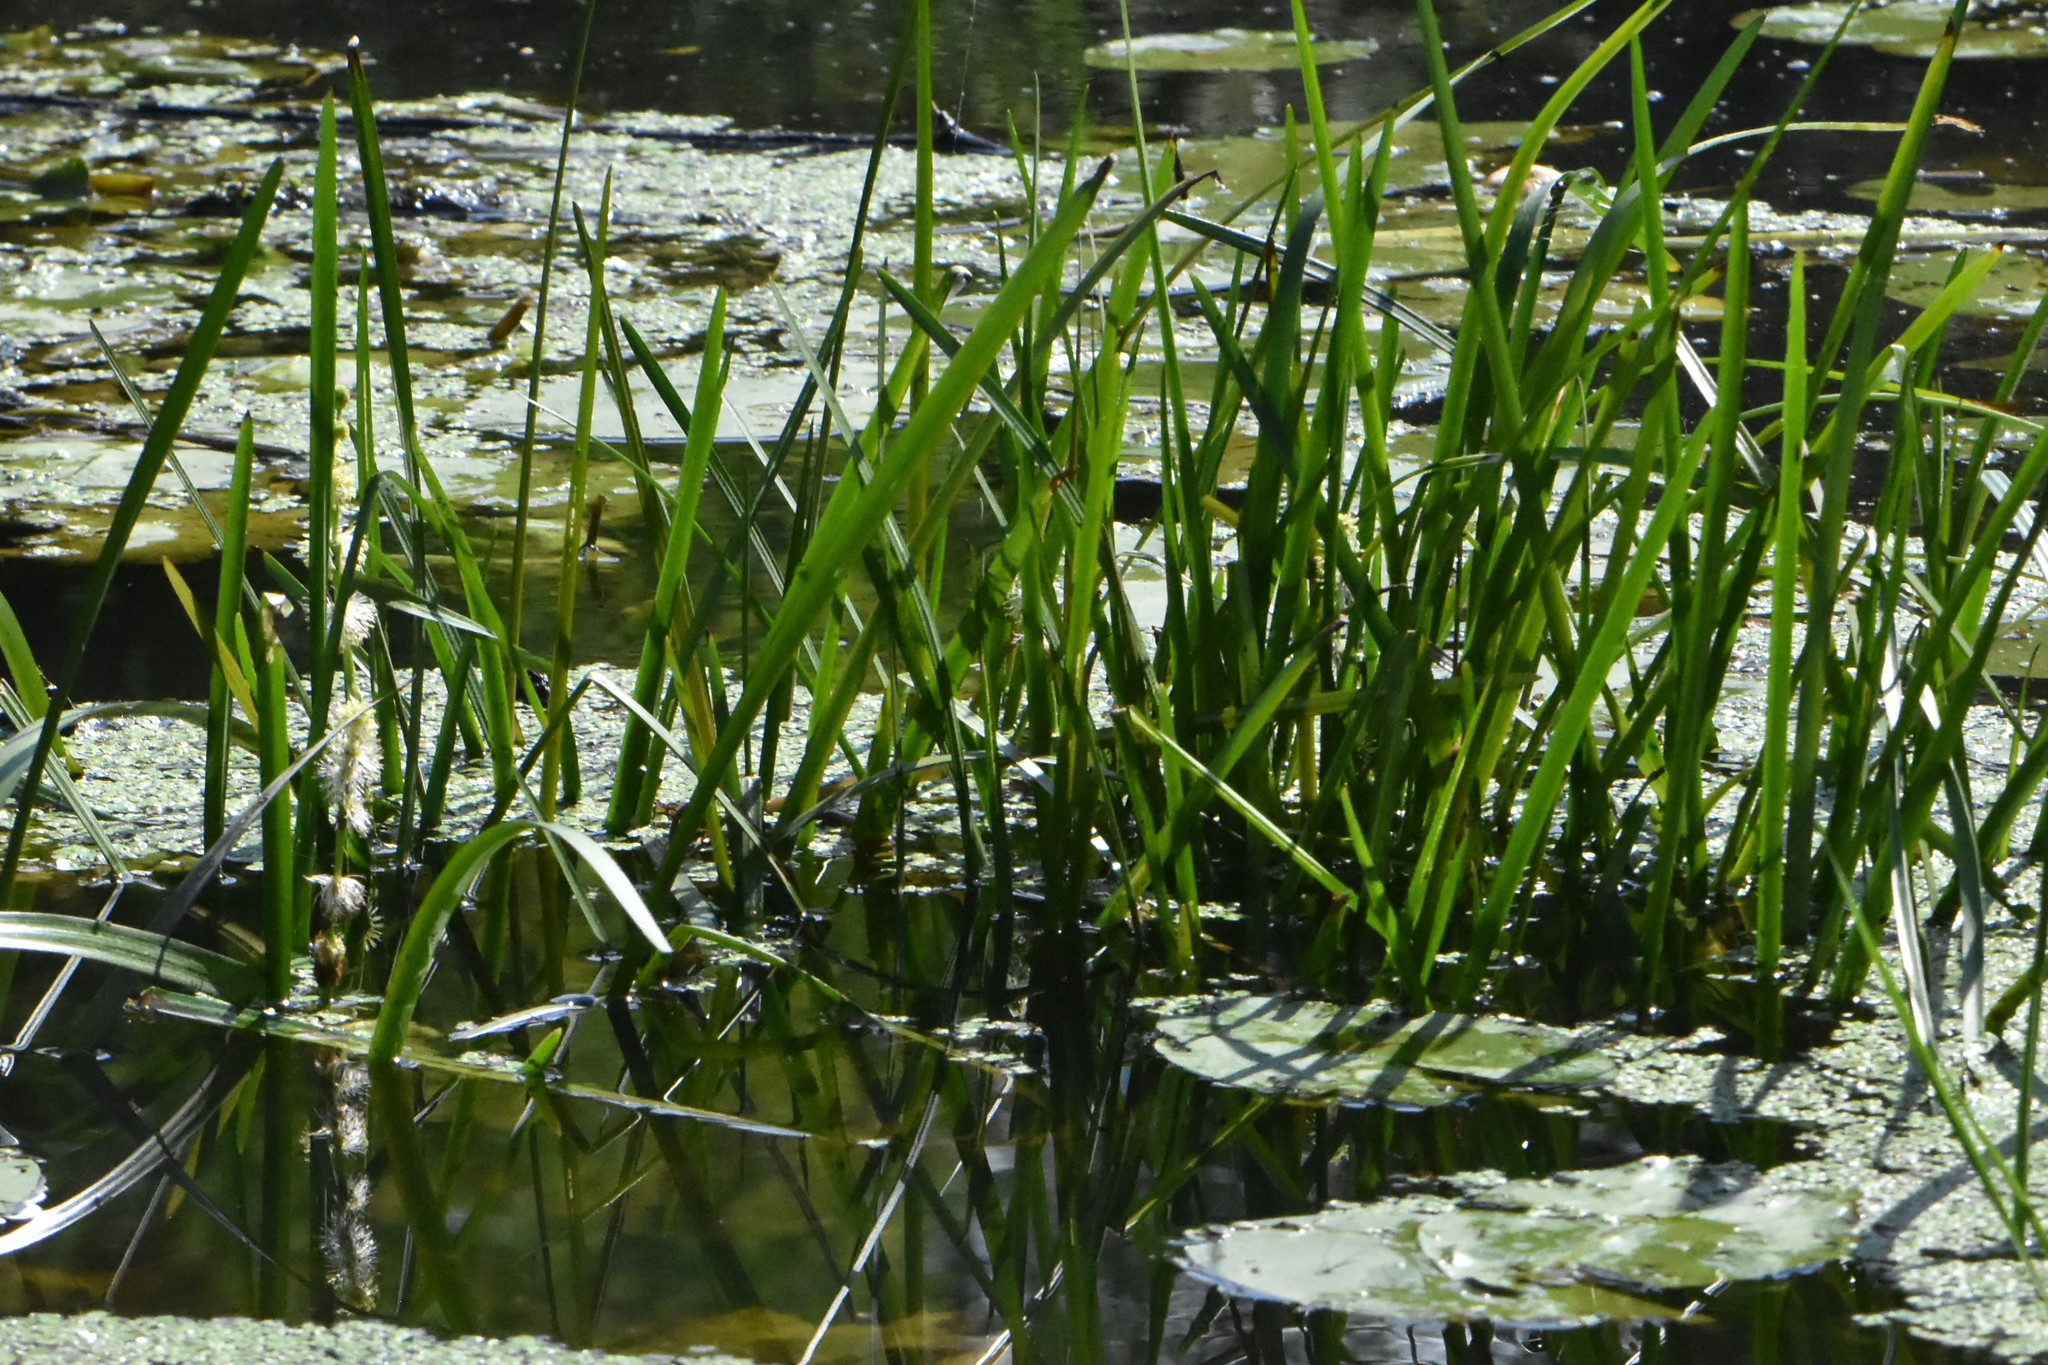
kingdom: Plantae
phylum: Tracheophyta
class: Liliopsida
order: Poales
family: Typhaceae
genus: Sparganium
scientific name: Sparganium emersum
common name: Unbranched bur-reed
